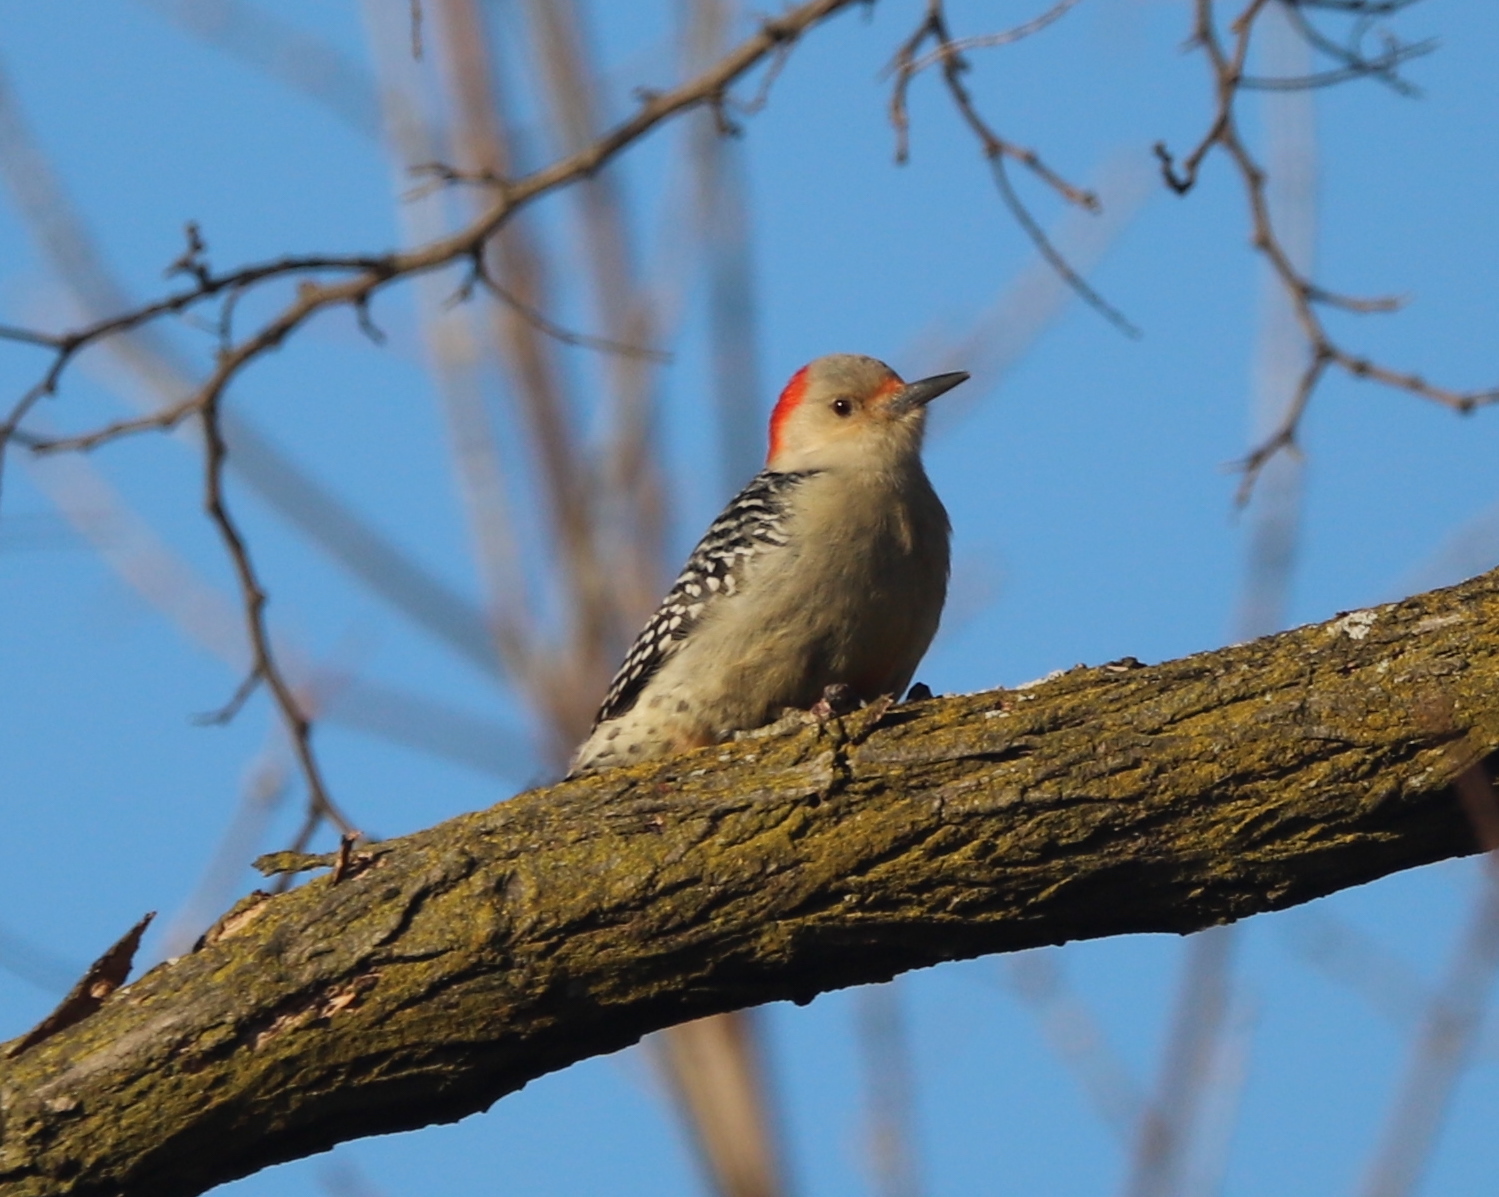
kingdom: Animalia
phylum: Chordata
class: Aves
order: Piciformes
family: Picidae
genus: Melanerpes
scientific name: Melanerpes carolinus
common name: Red-bellied woodpecker
